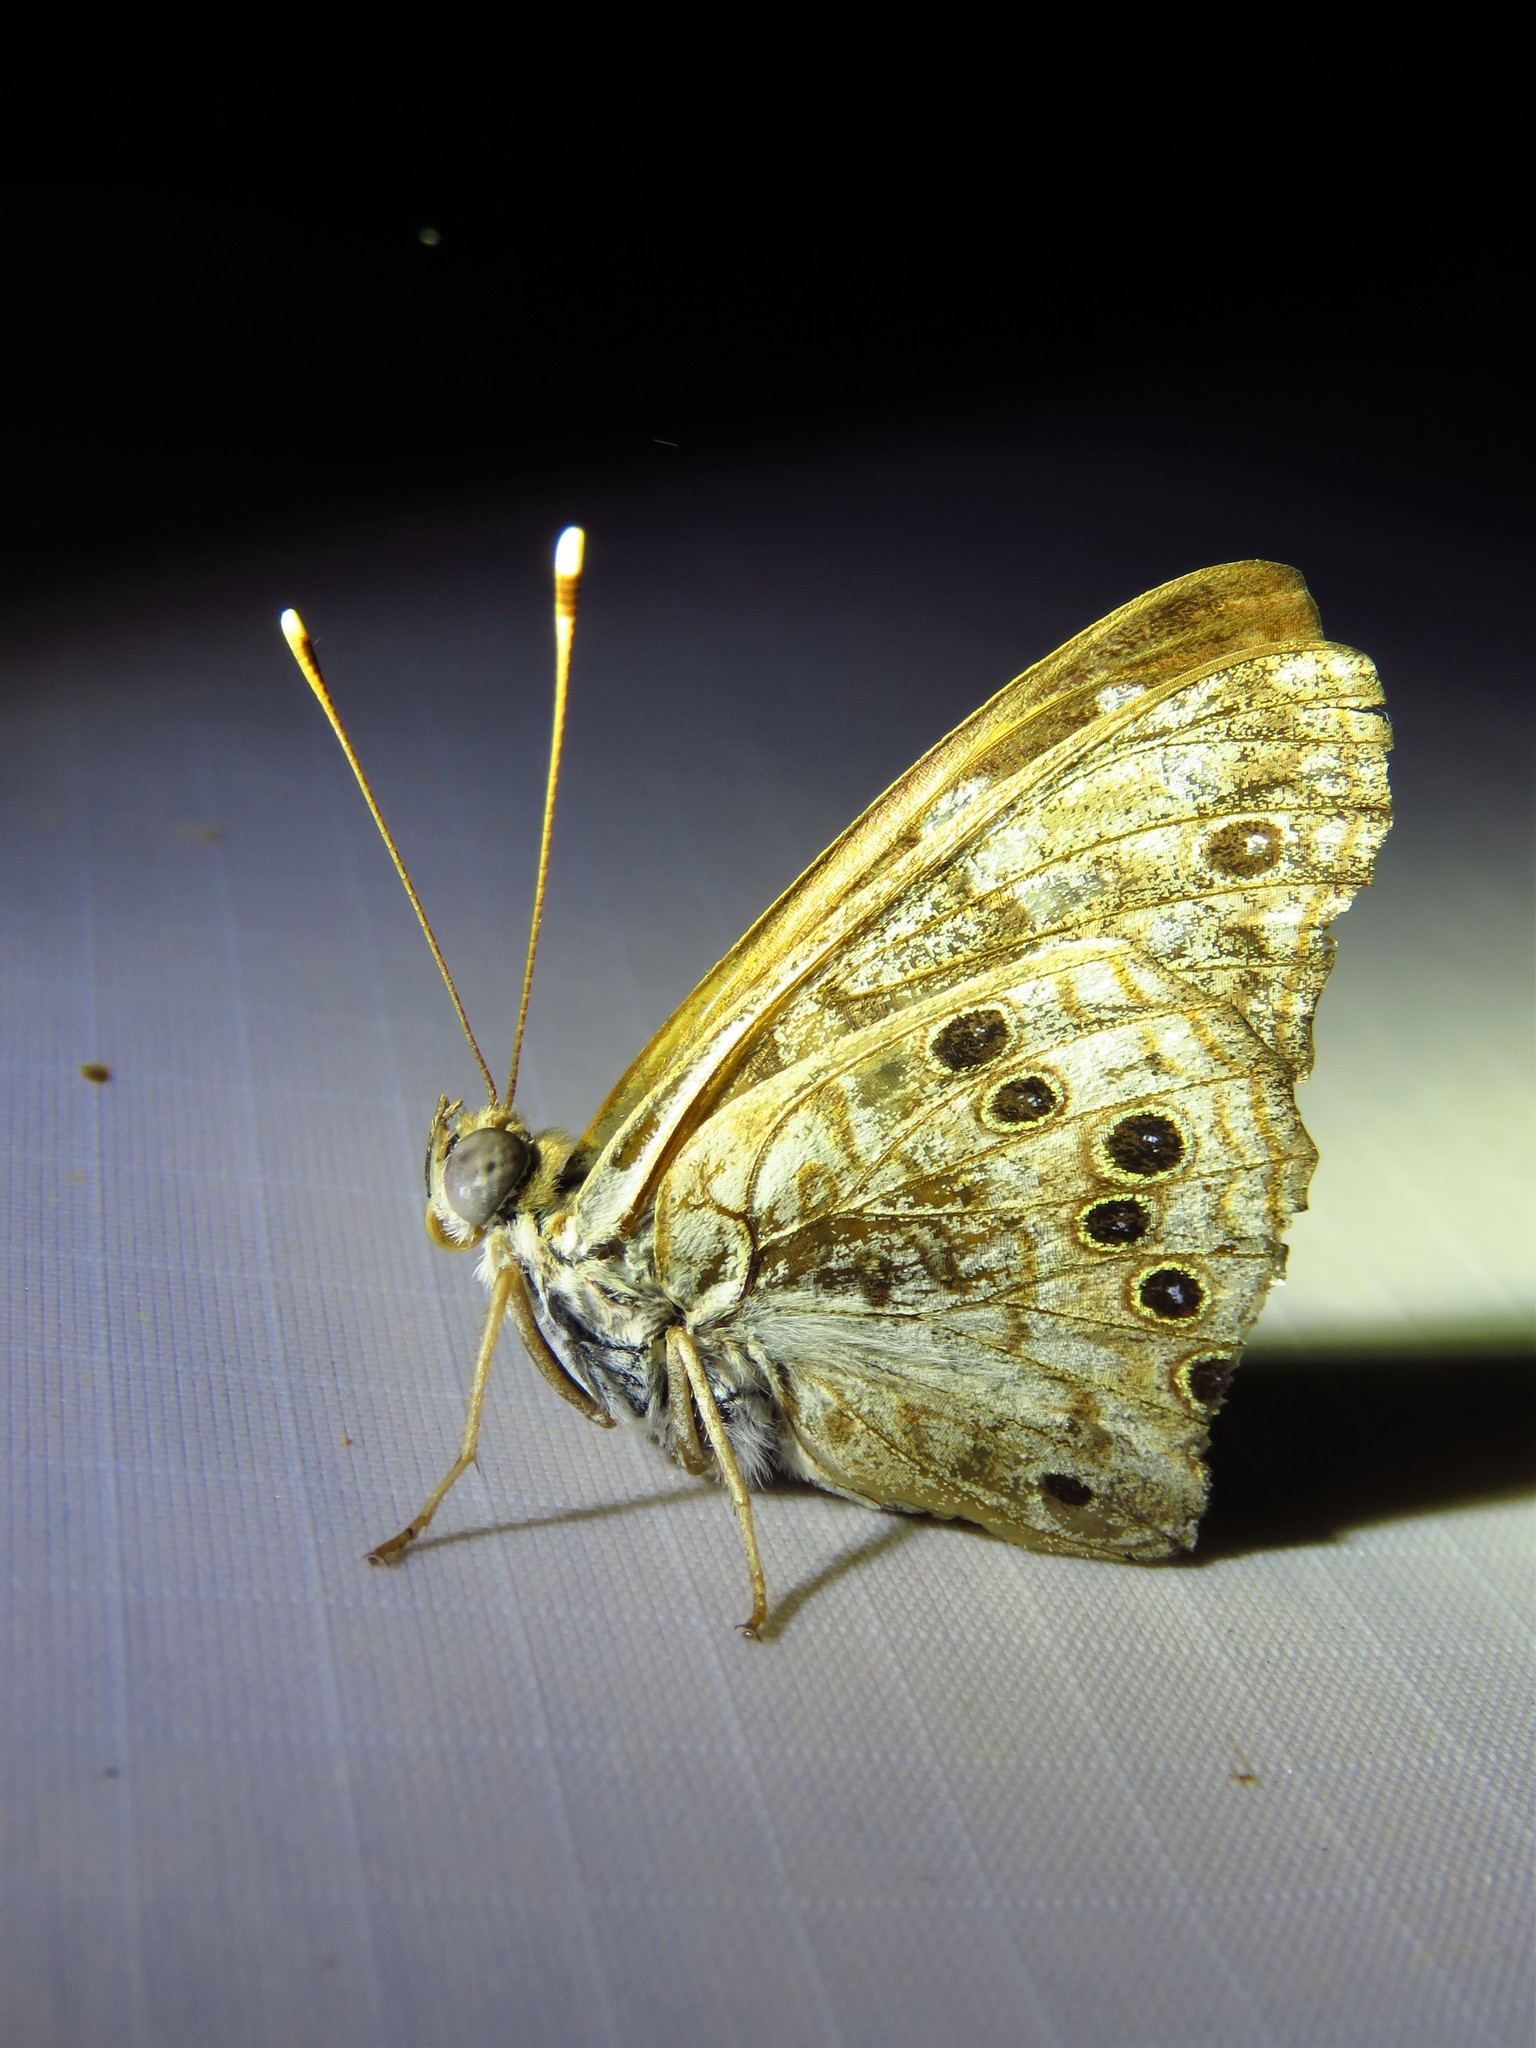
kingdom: Animalia
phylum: Arthropoda
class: Insecta
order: Lepidoptera
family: Nymphalidae
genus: Asterocampa
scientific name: Asterocampa celtis
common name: Hackberry emperor
